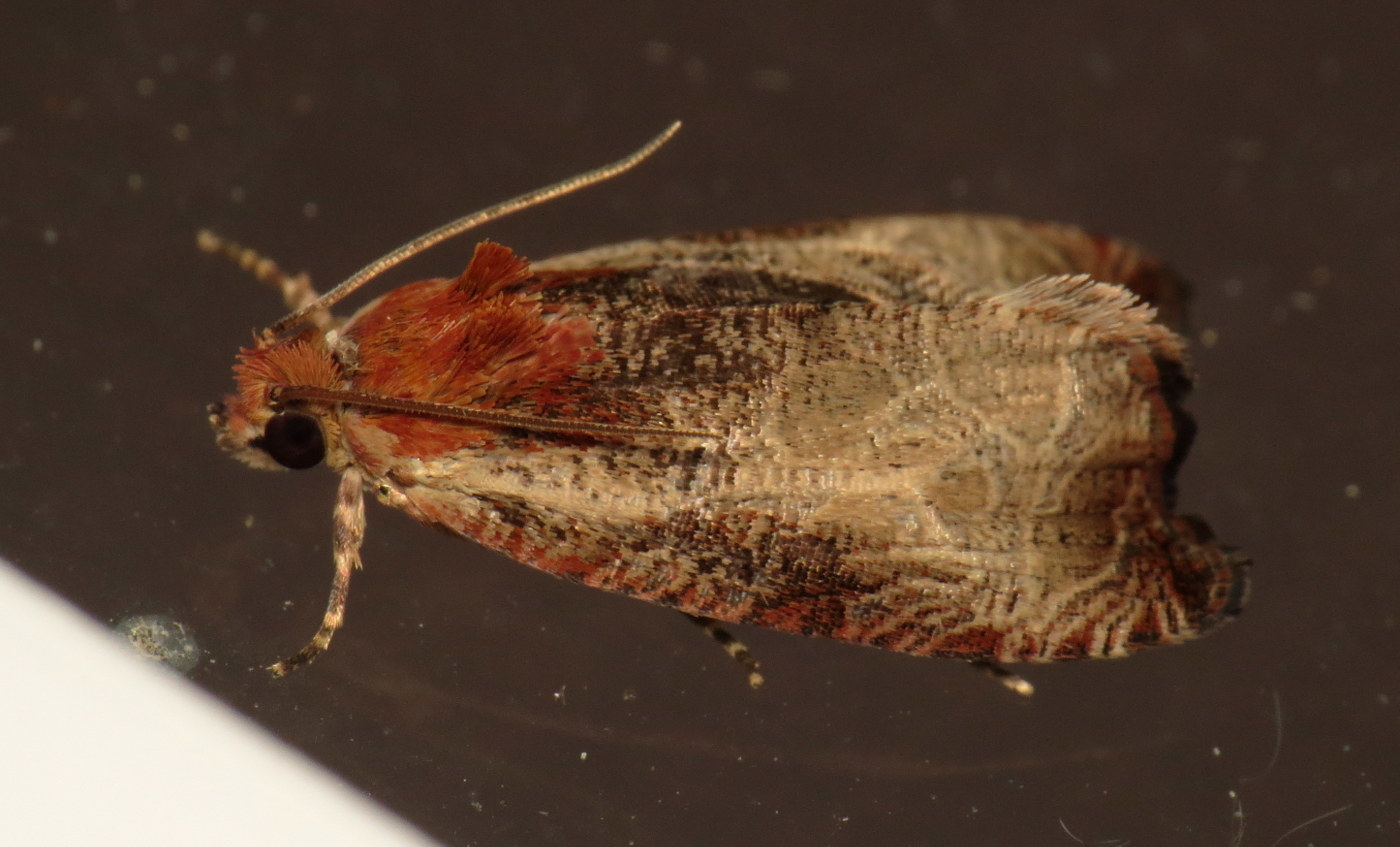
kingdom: Animalia
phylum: Arthropoda
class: Insecta
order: Lepidoptera
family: Tortricidae
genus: Olethreutes
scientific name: Olethreutes inornatana
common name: Inornate olethreutes moth
